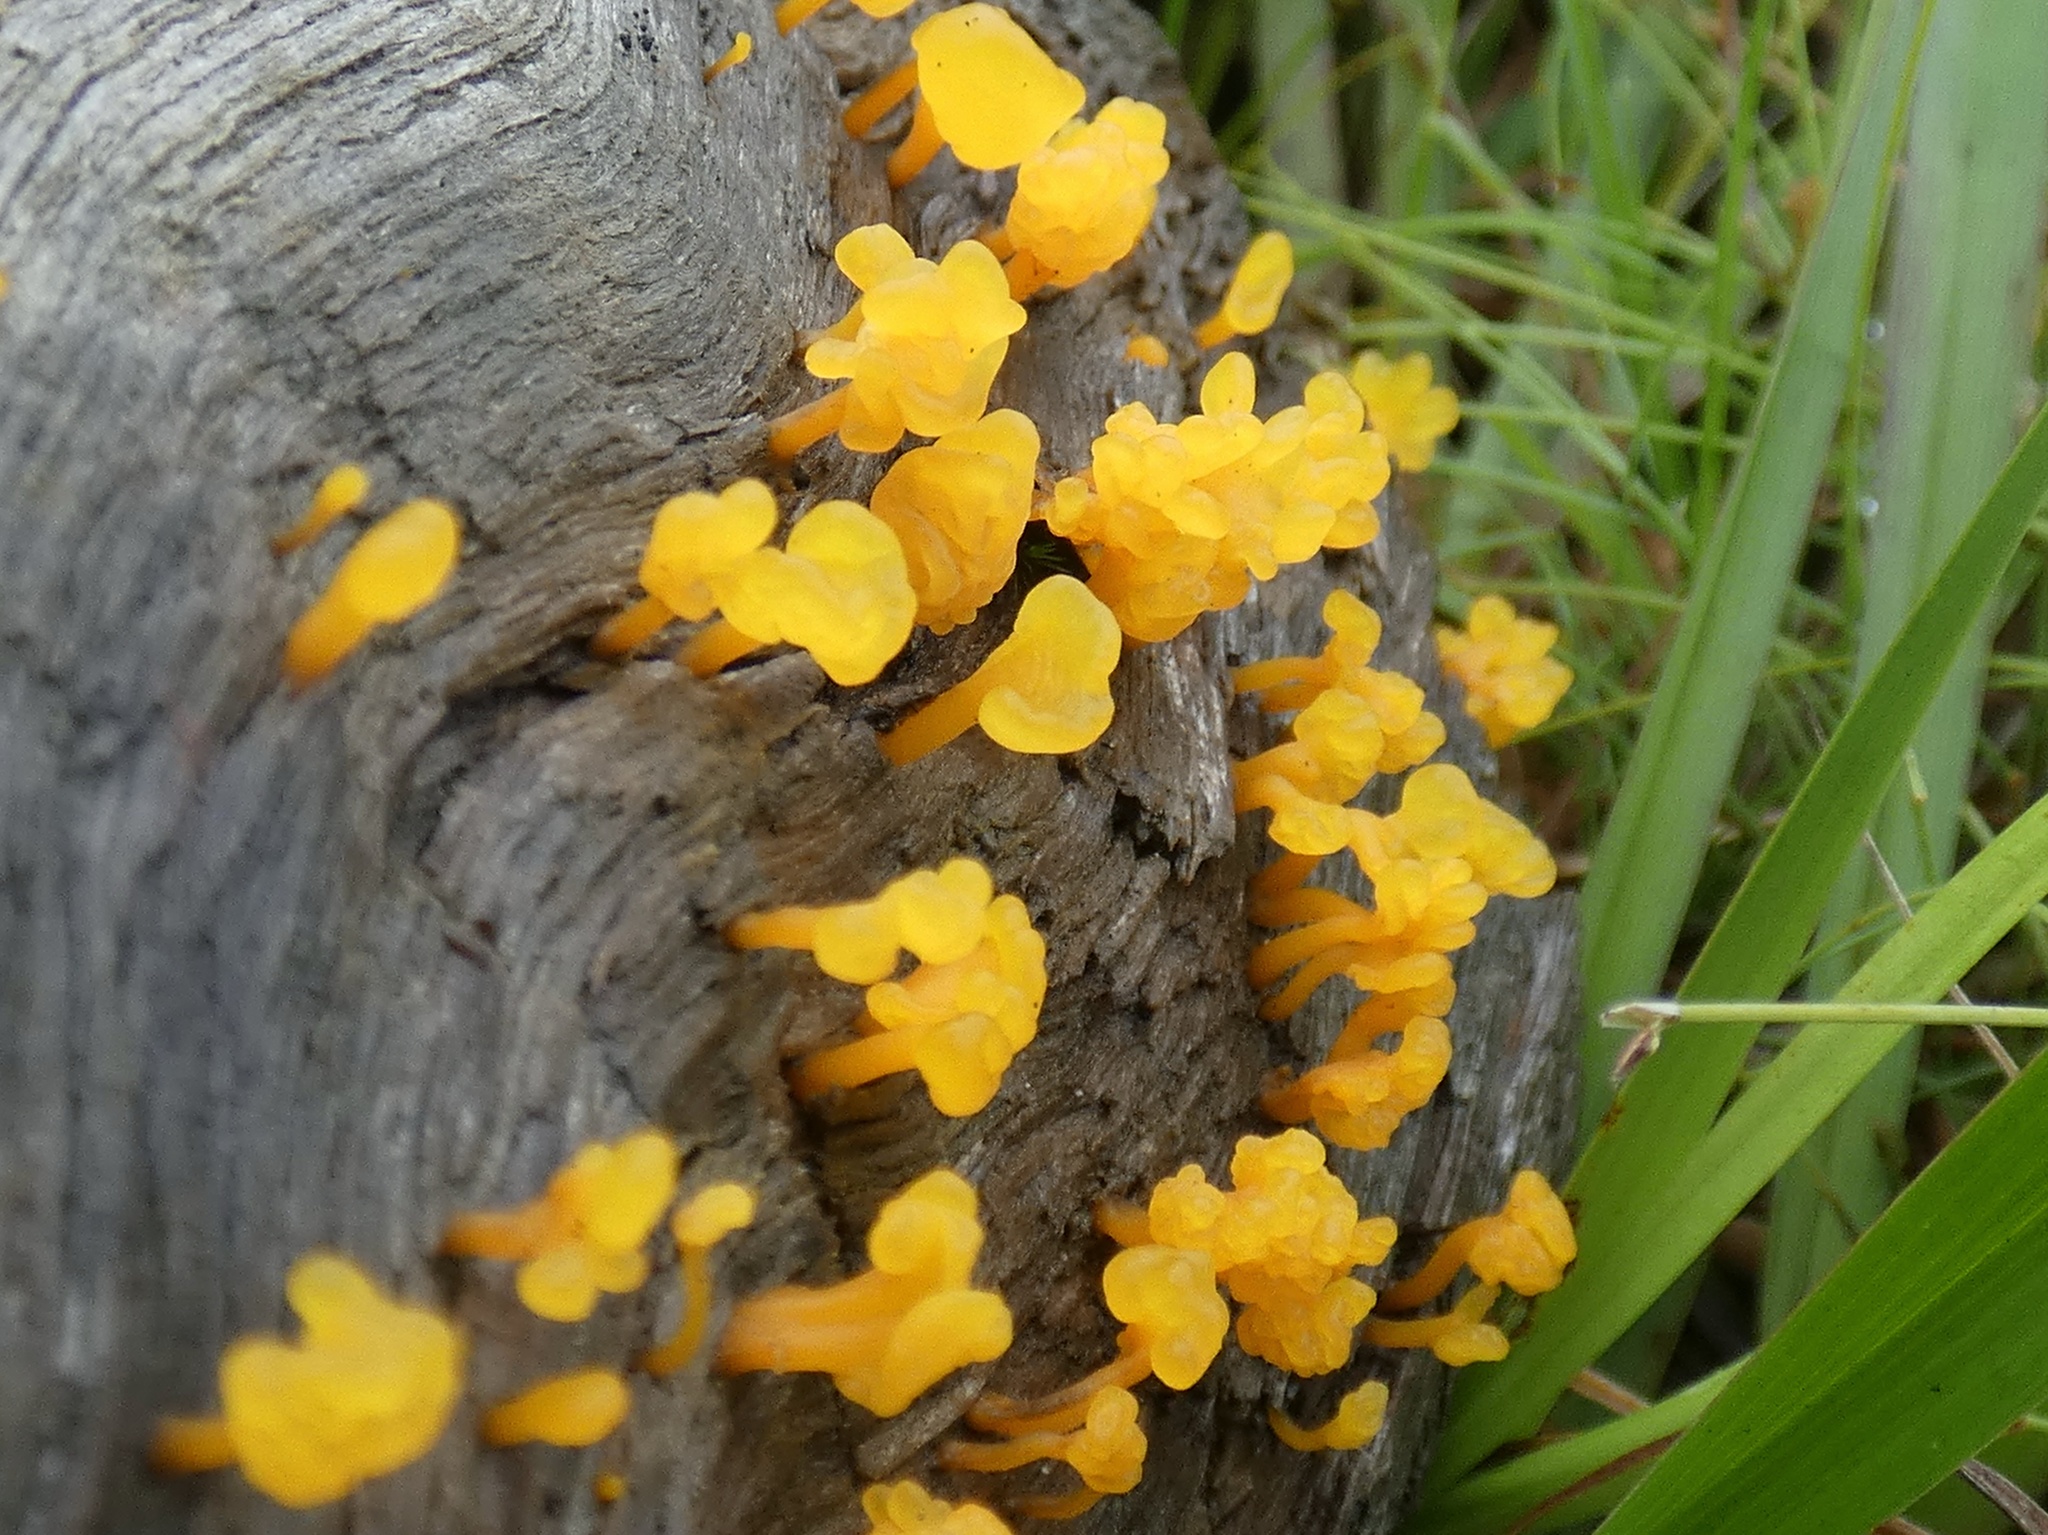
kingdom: Fungi
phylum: Basidiomycota
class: Dacrymycetes
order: Dacrymycetales
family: Dacrymycetaceae
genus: Dacrymyces
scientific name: Dacrymyces spathularius
